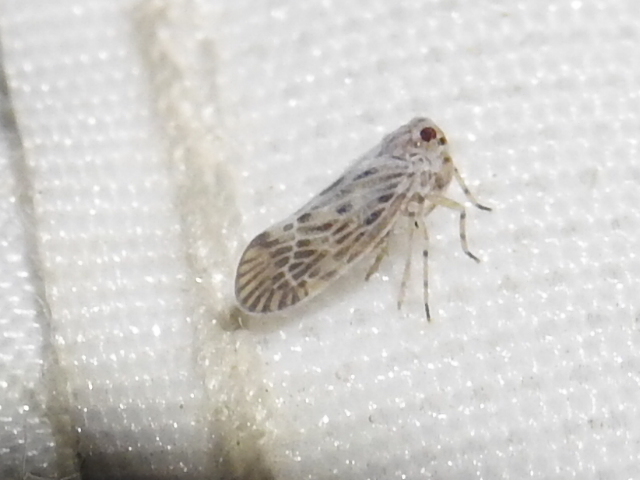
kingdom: Animalia
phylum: Arthropoda
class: Insecta
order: Hemiptera
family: Derbidae
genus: Cedusa
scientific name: Cedusa maculata
